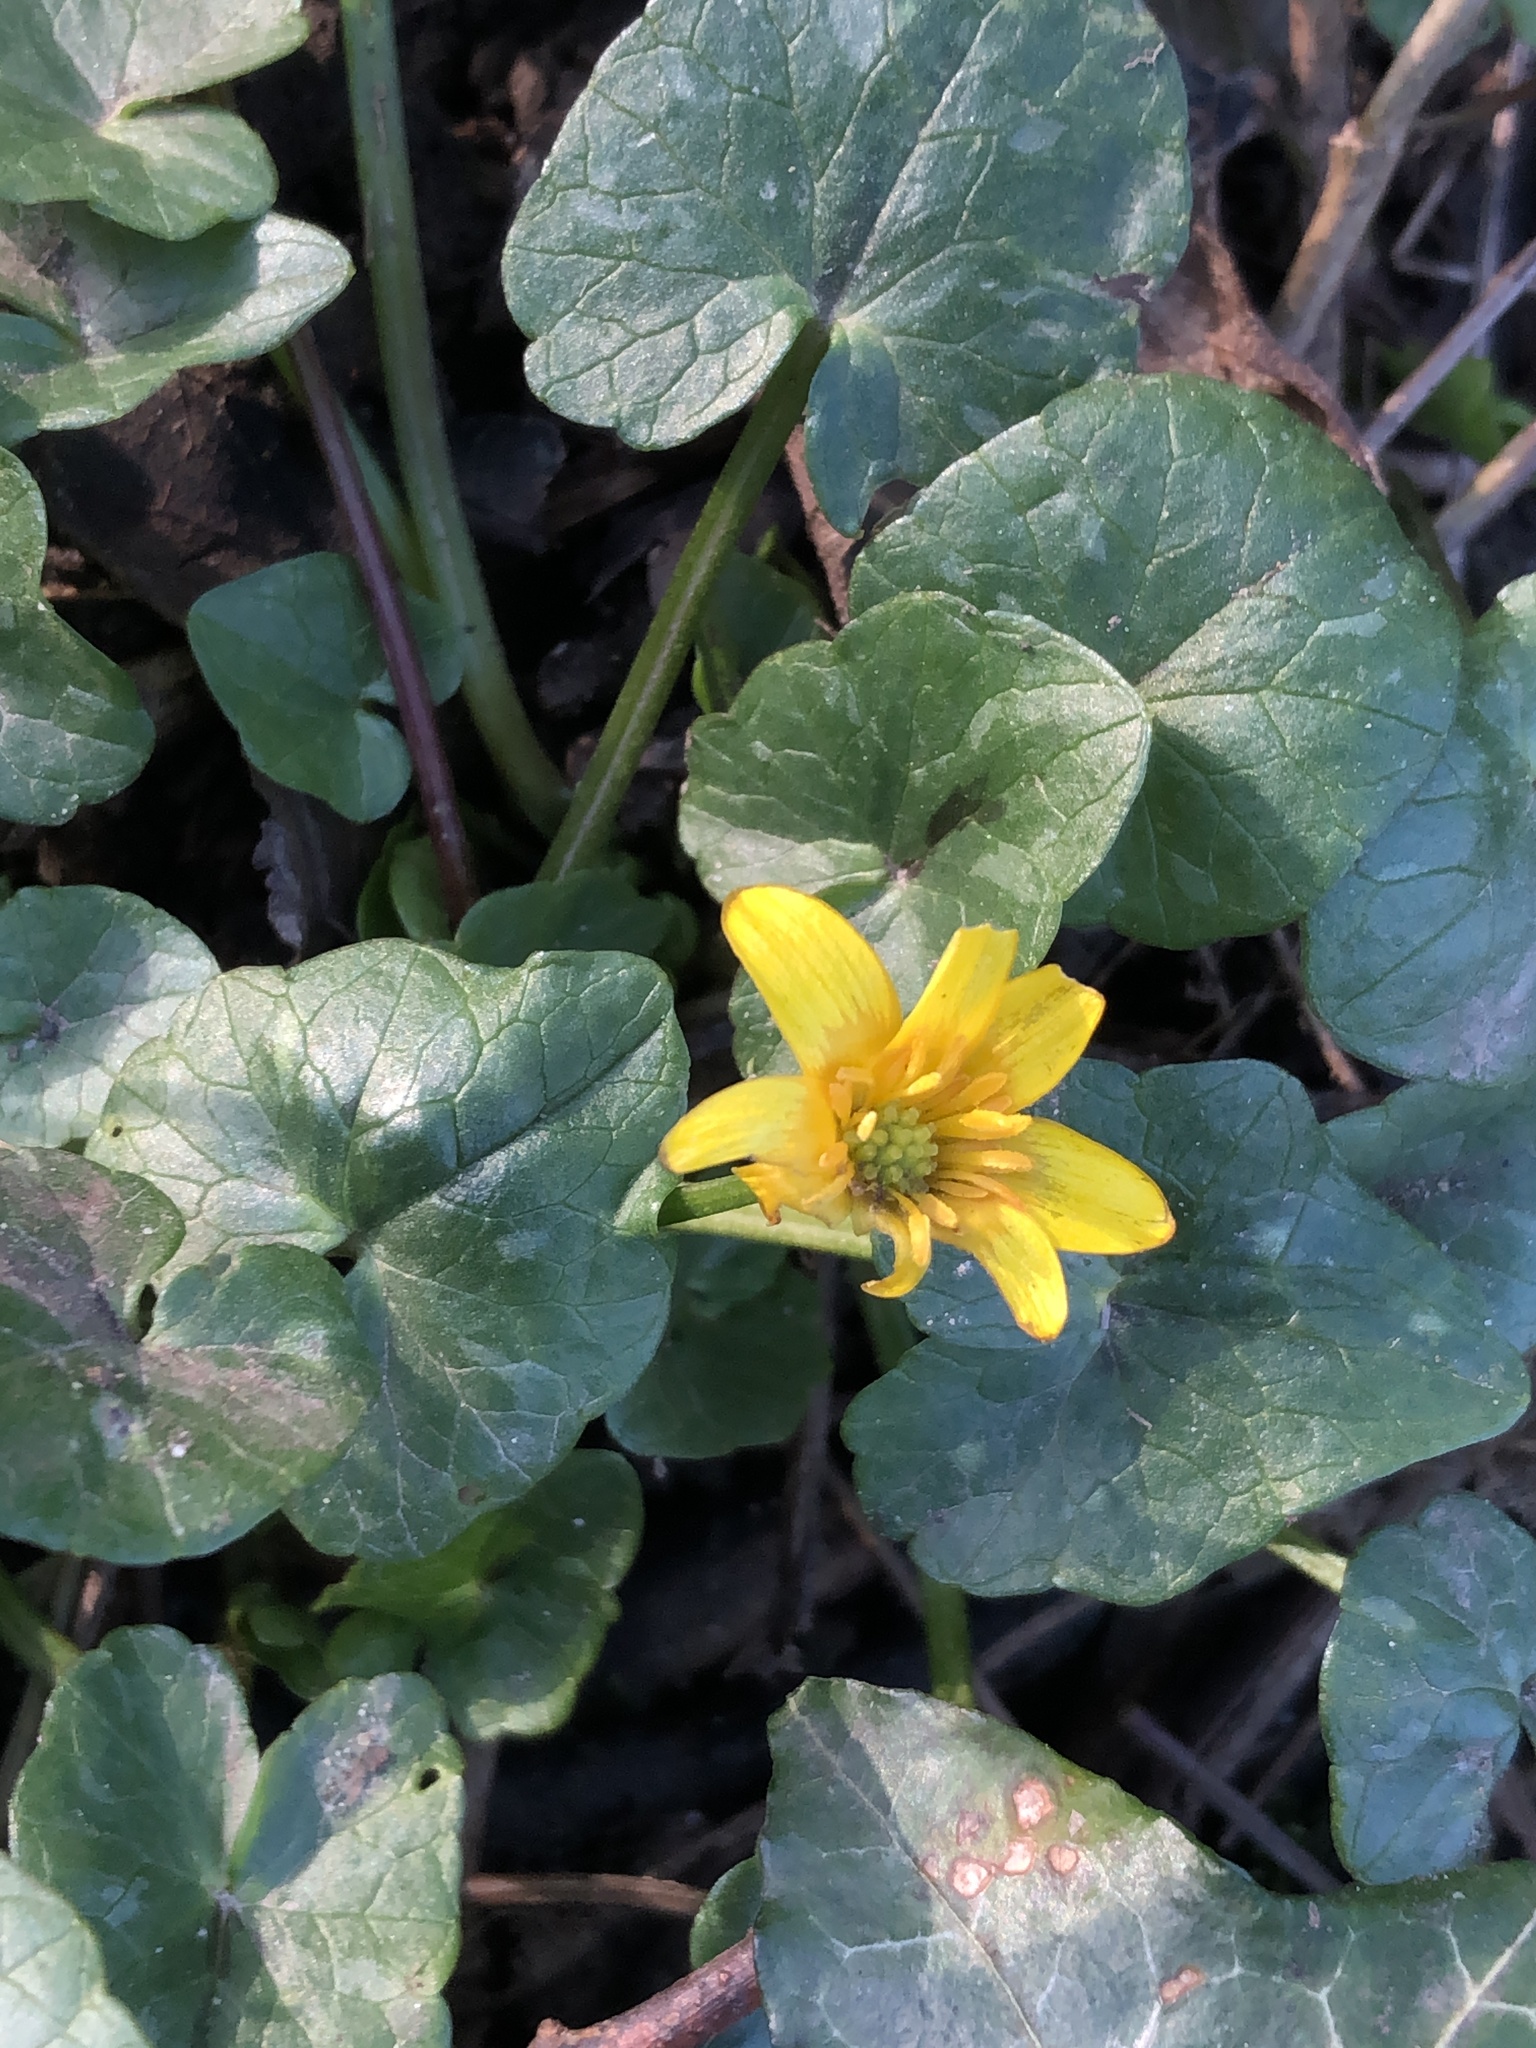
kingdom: Plantae
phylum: Tracheophyta
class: Magnoliopsida
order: Ranunculales
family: Ranunculaceae
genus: Ficaria
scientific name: Ficaria verna
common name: Lesser celandine
